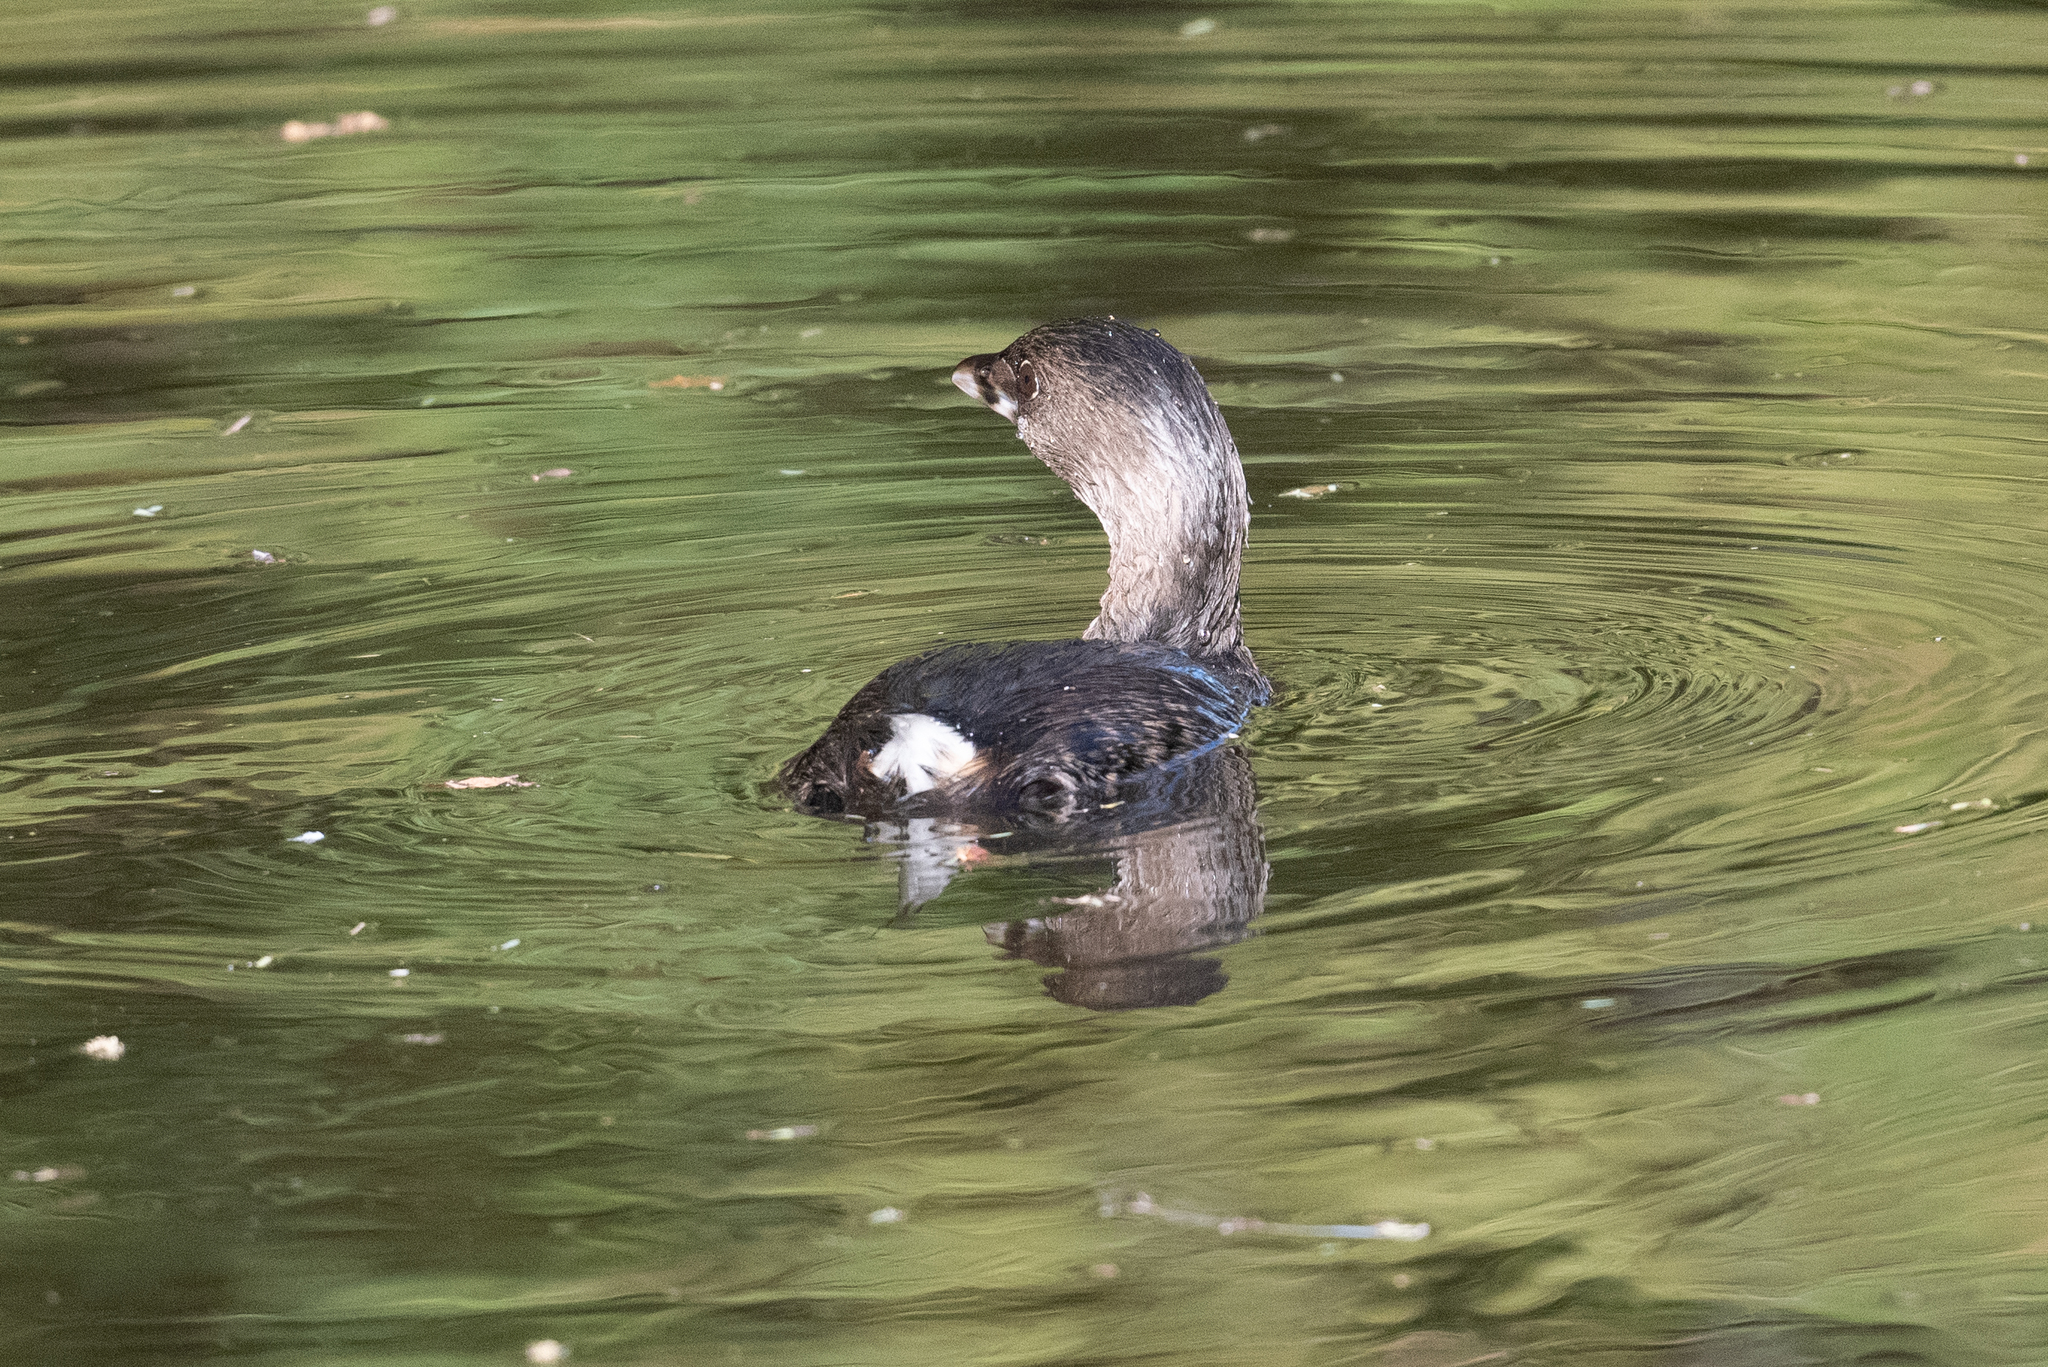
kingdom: Animalia
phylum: Chordata
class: Aves
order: Podicipediformes
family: Podicipedidae
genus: Podilymbus
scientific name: Podilymbus podiceps
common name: Pied-billed grebe
